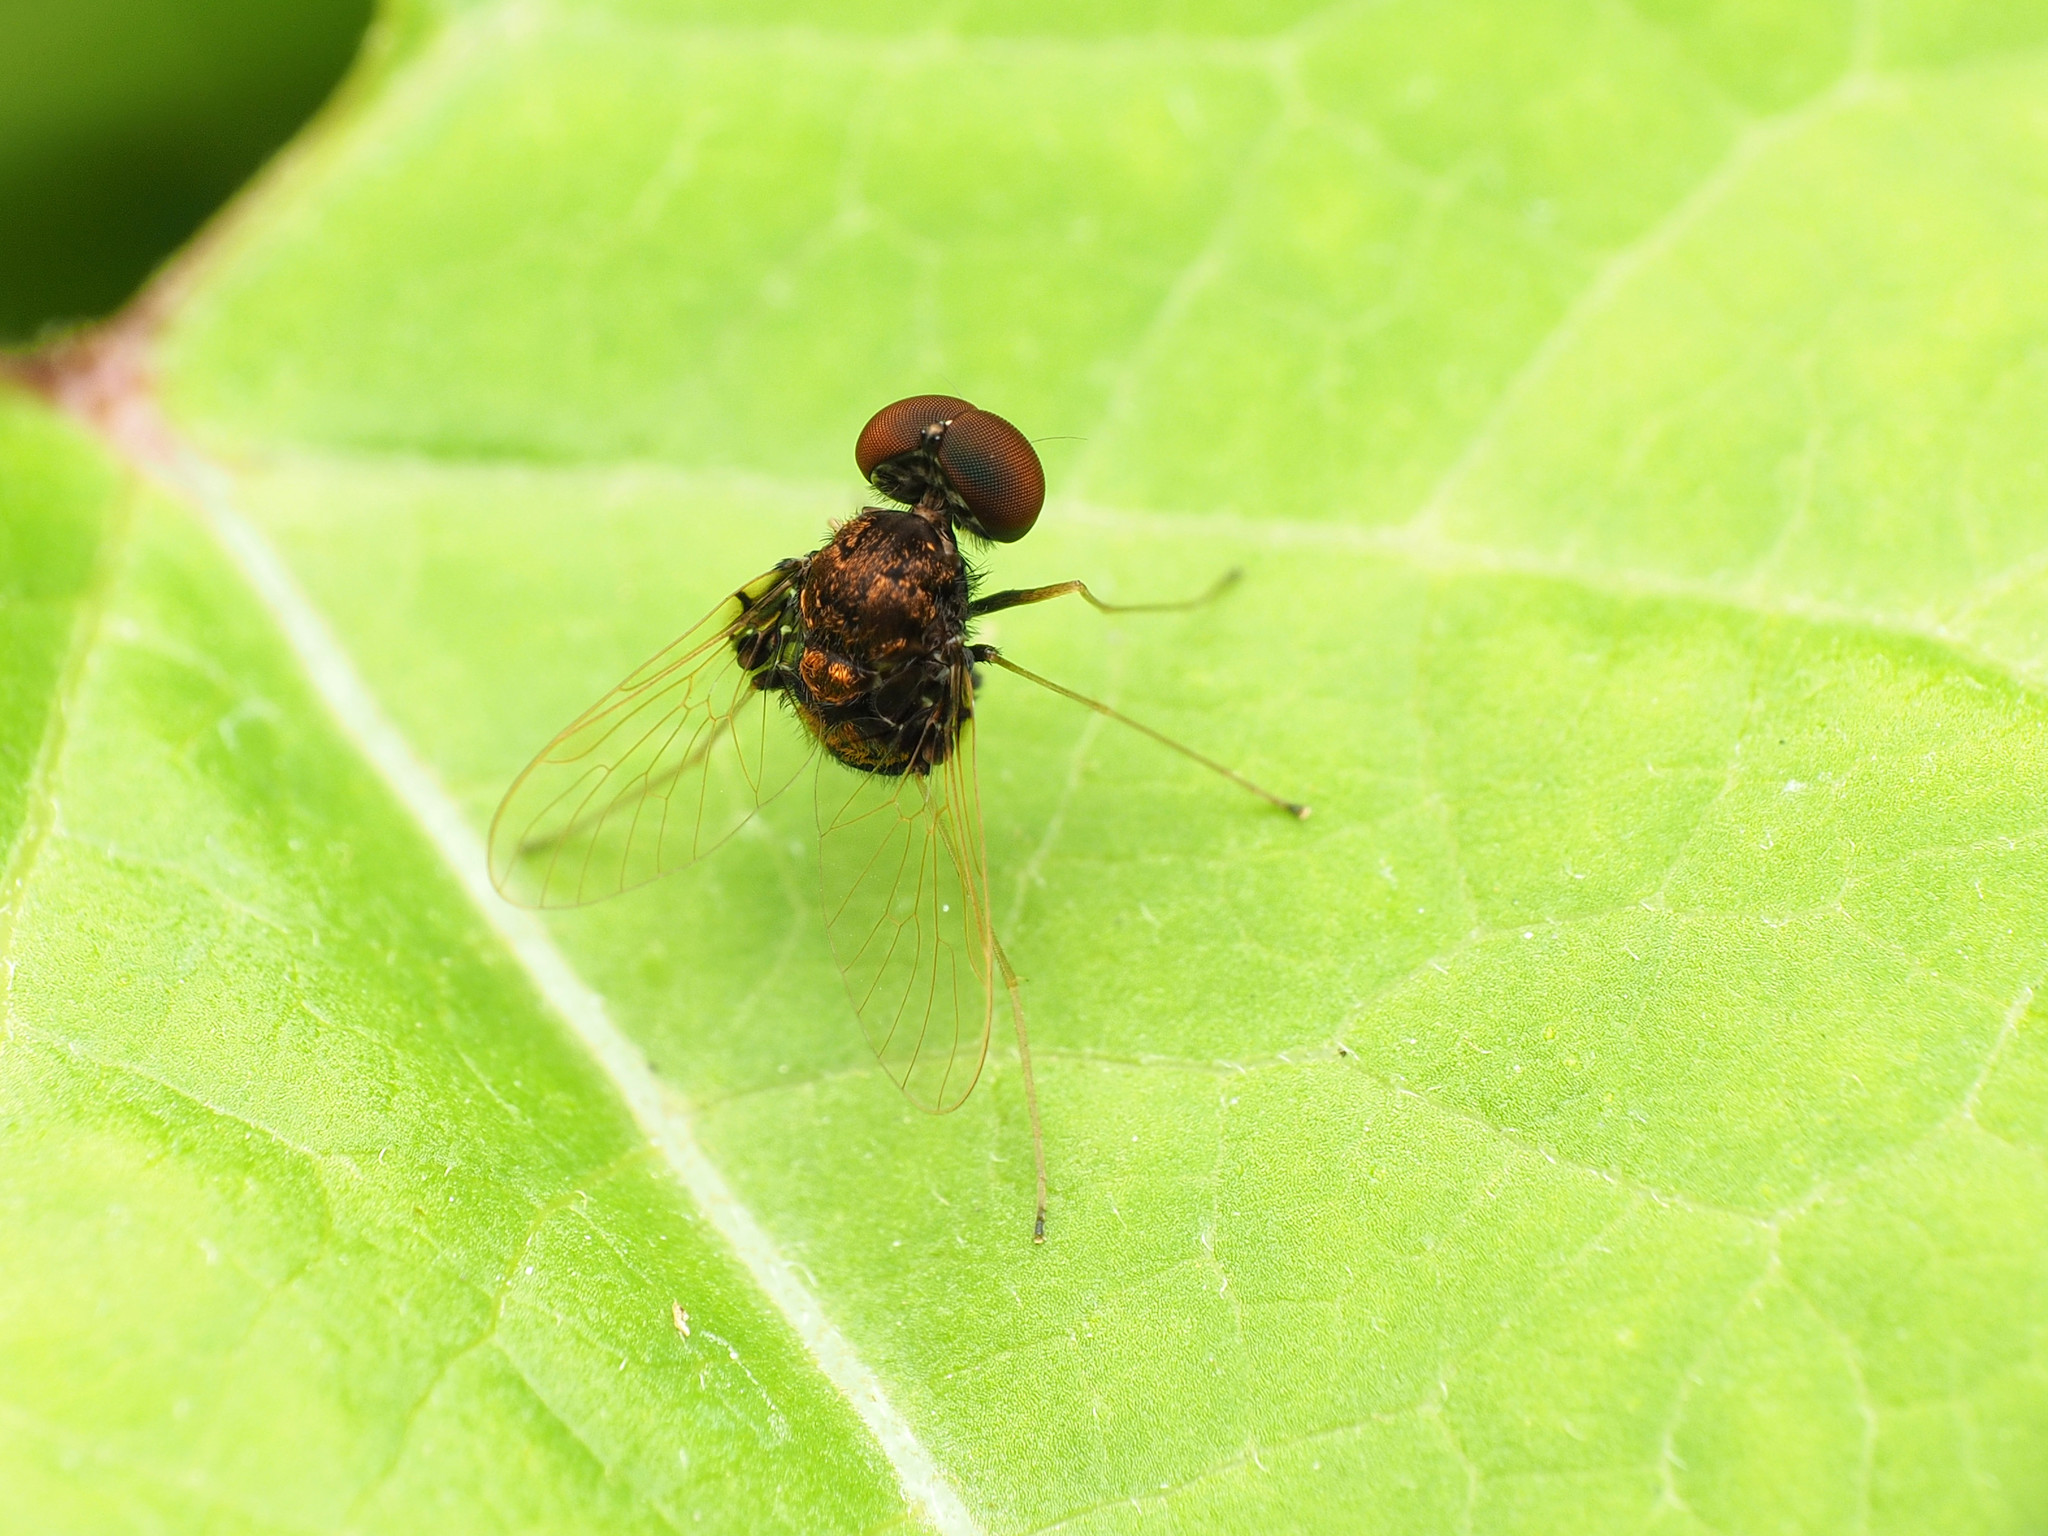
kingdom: Animalia
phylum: Arthropoda
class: Insecta
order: Diptera
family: Rhagionidae
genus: Chrysopilus
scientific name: Chrysopilus basilaris
